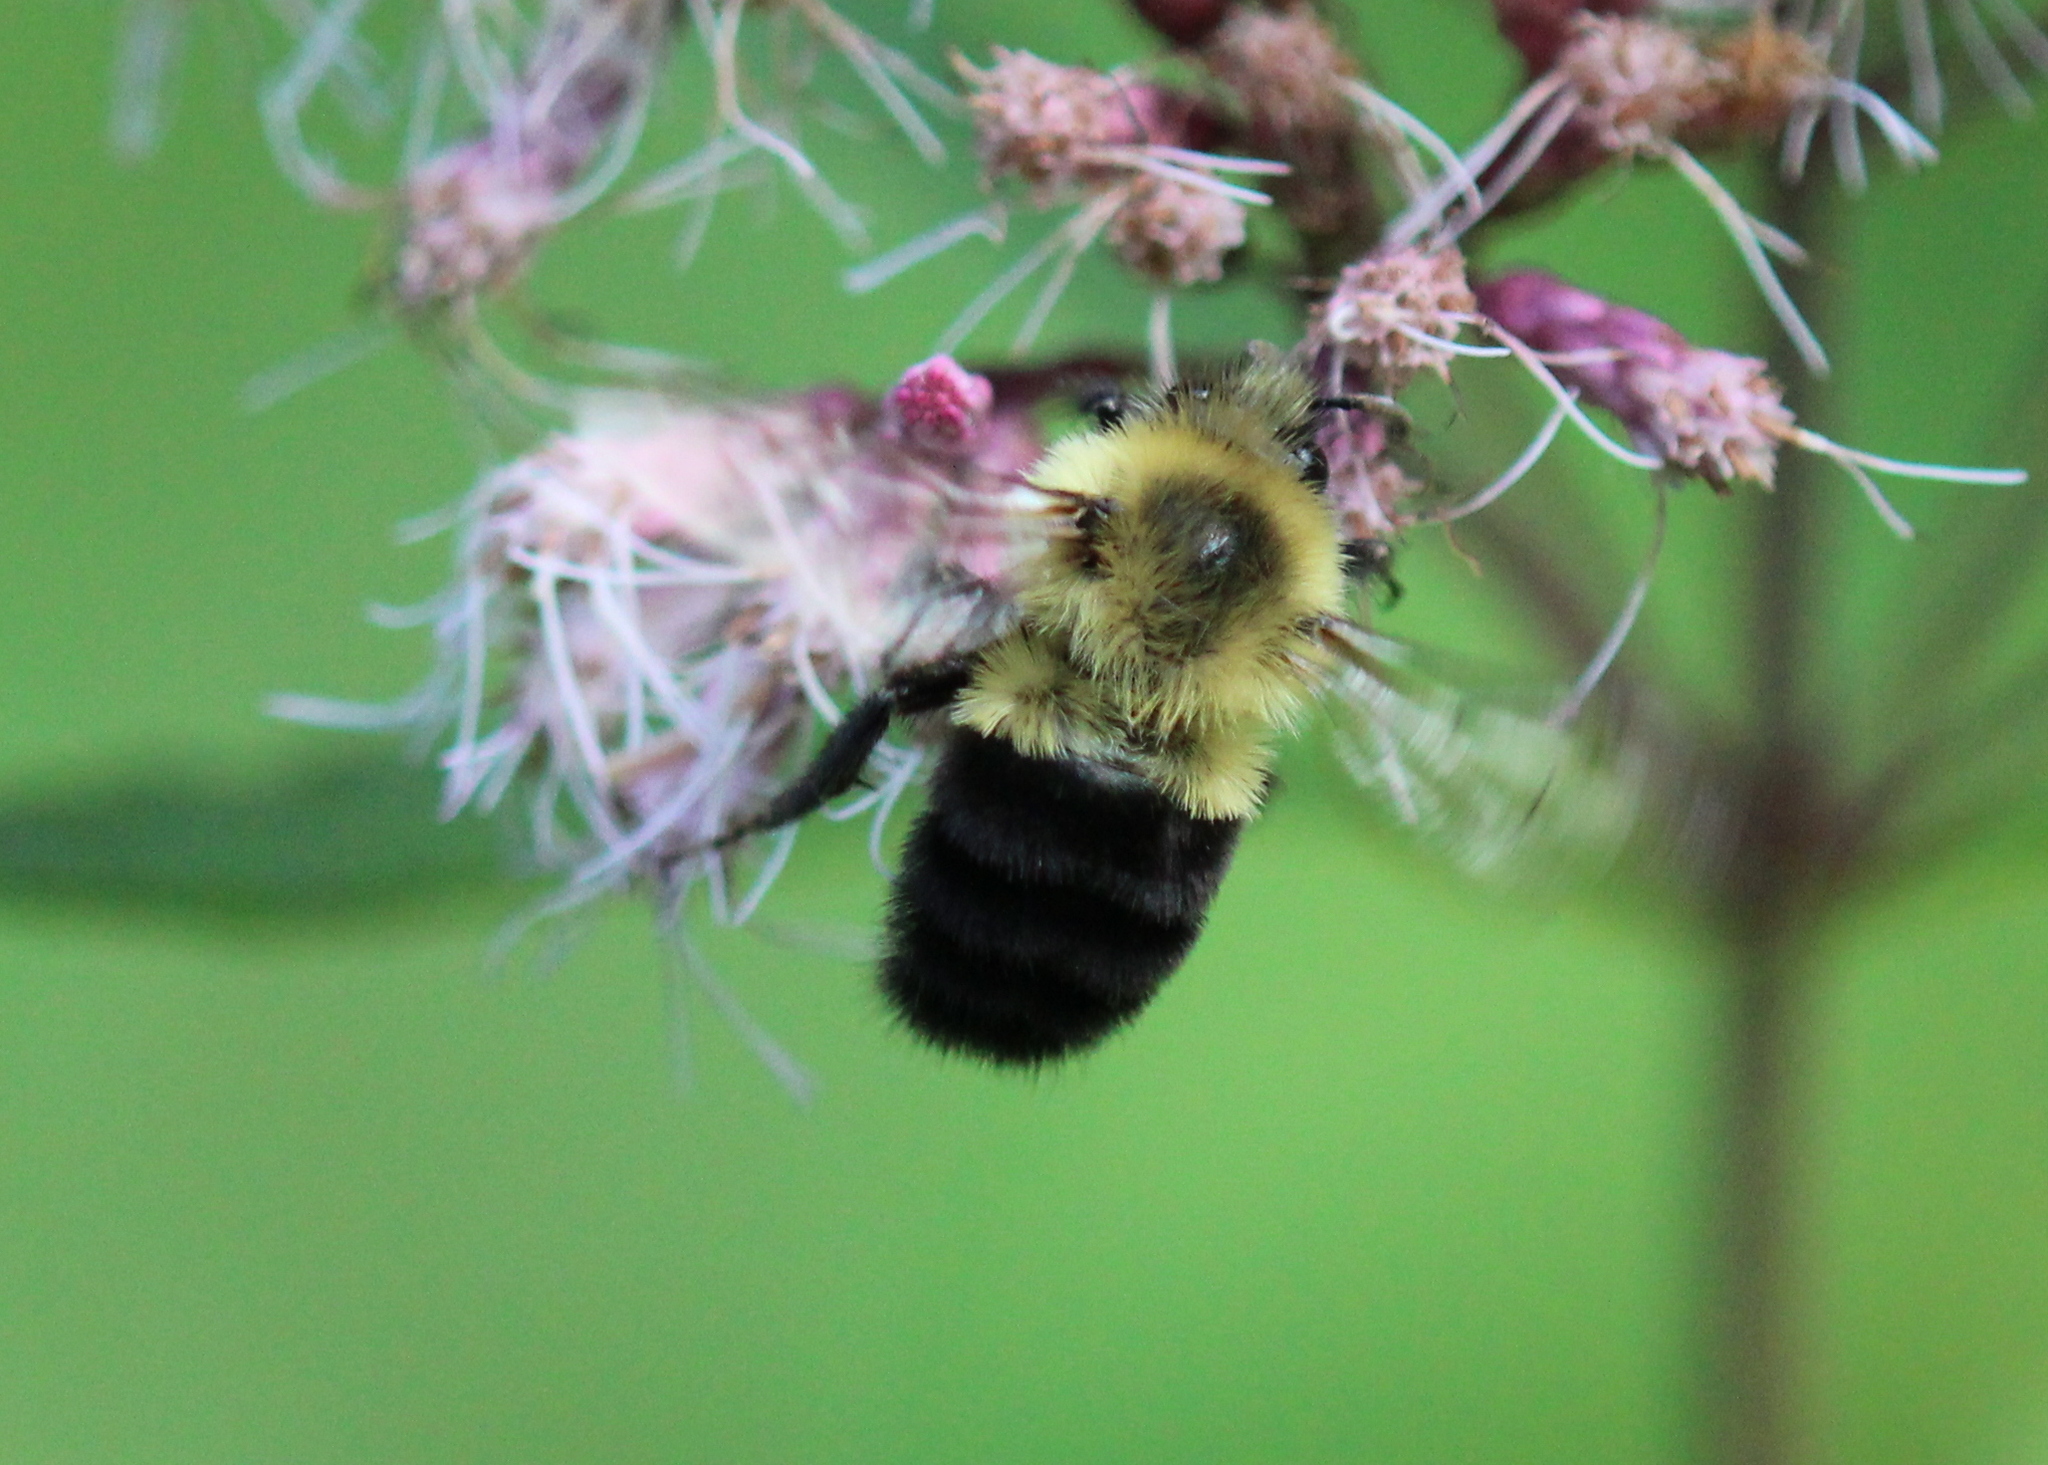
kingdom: Animalia
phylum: Arthropoda
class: Insecta
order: Hymenoptera
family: Apidae
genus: Bombus
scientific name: Bombus impatiens
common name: Common eastern bumble bee
